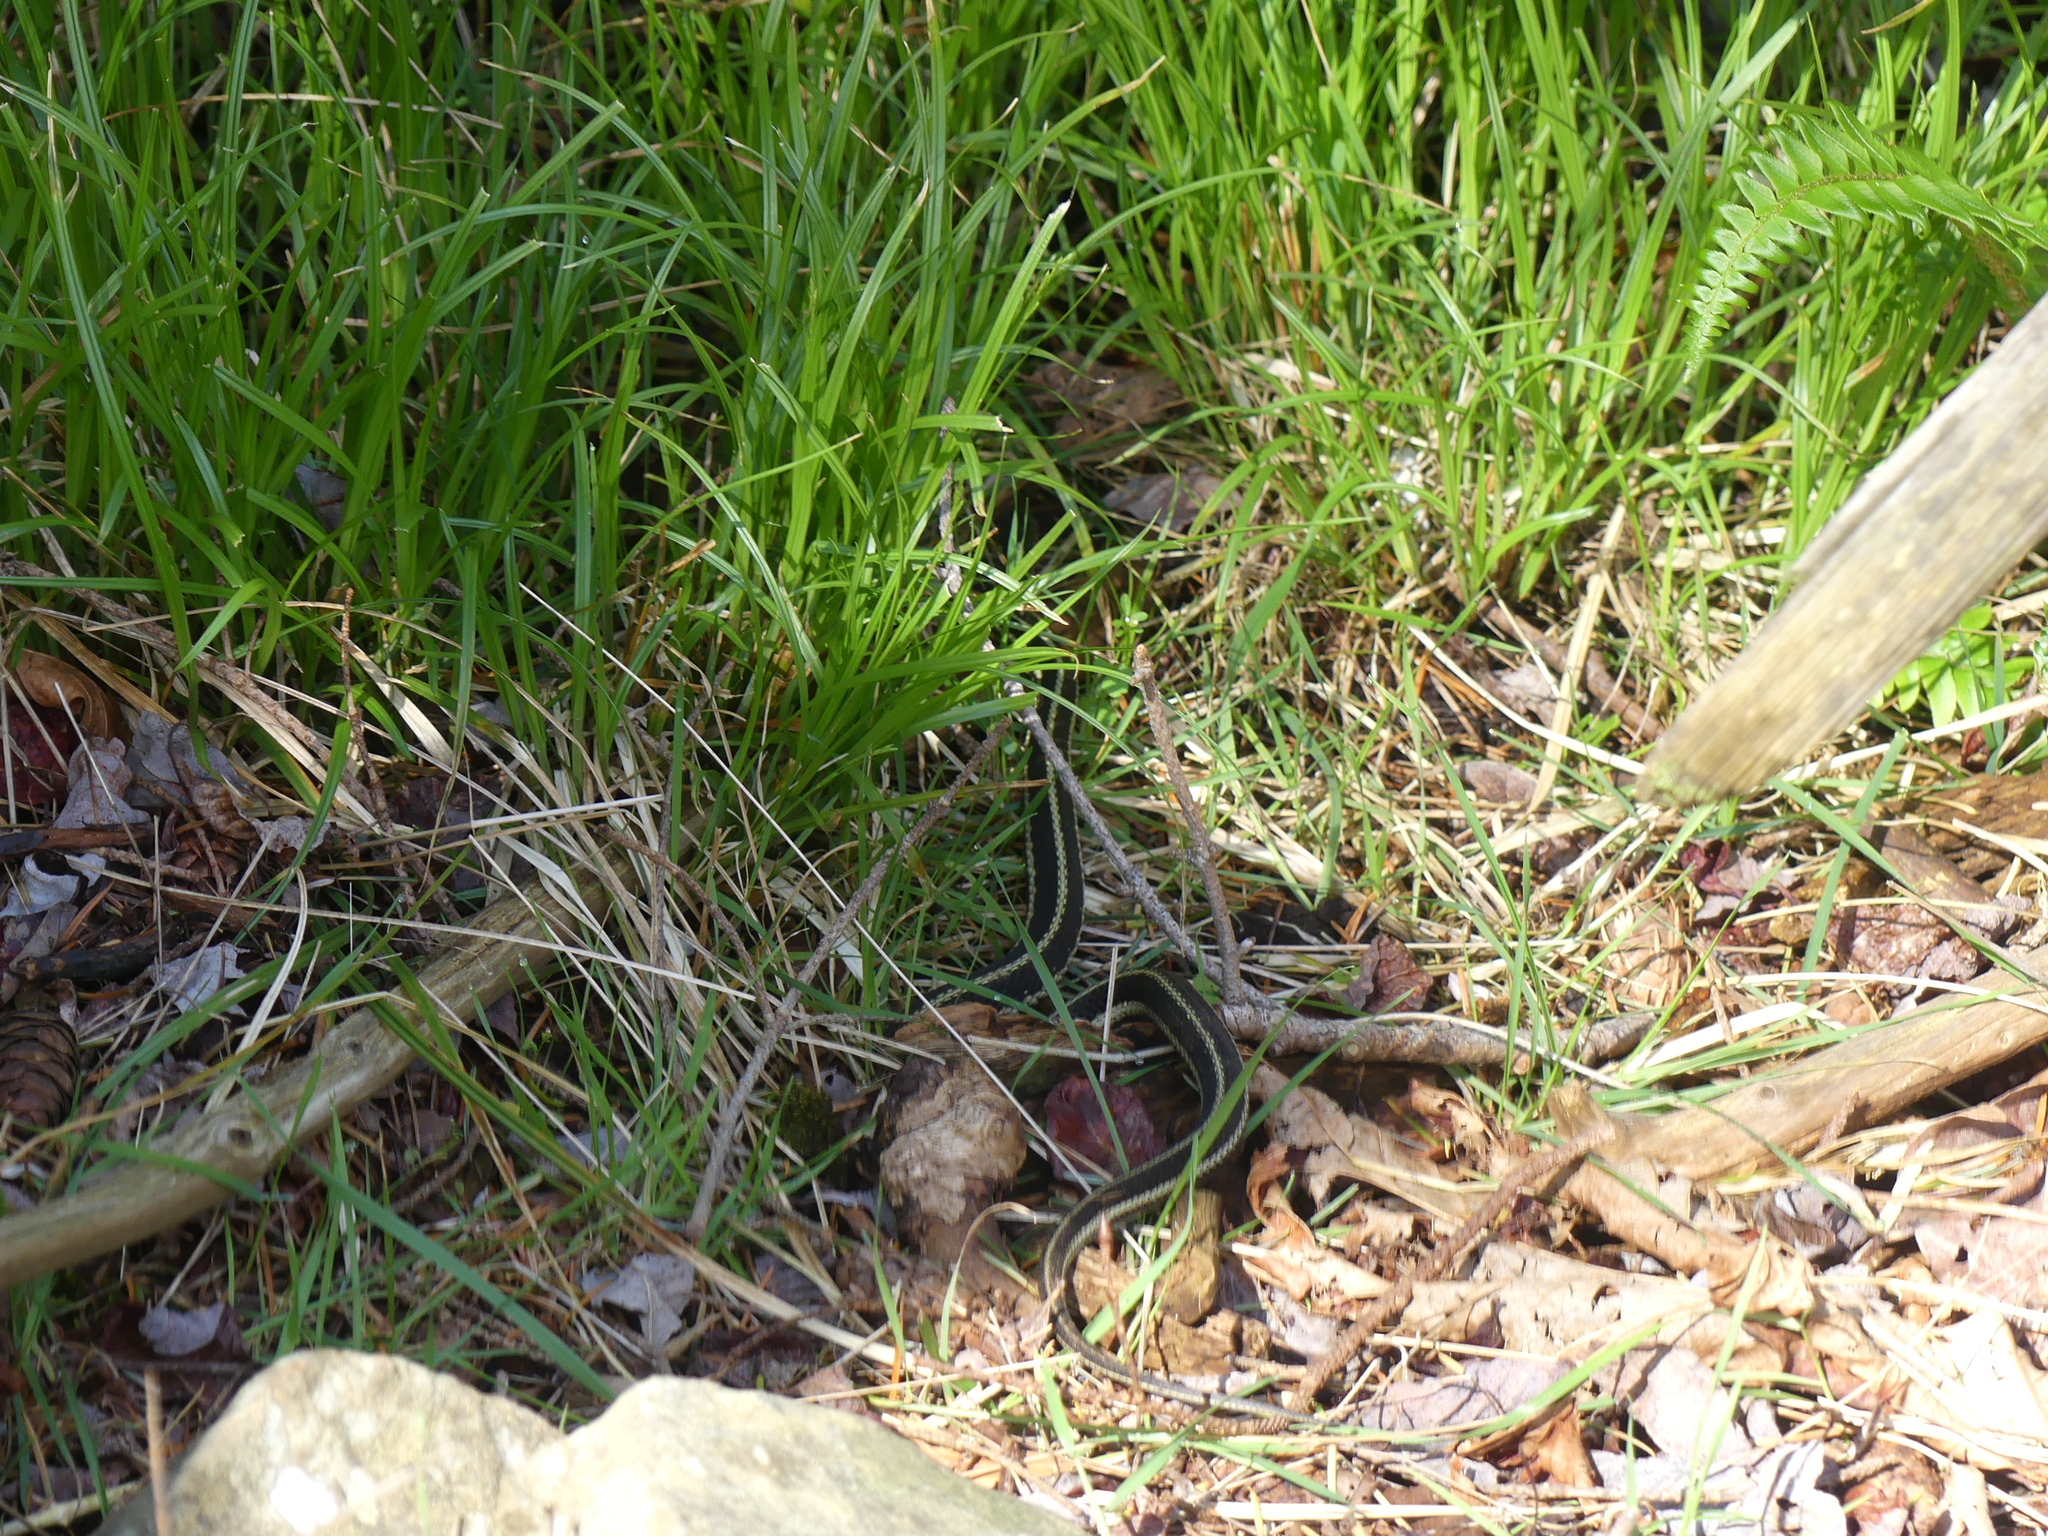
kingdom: Animalia
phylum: Chordata
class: Squamata
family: Colubridae
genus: Thamnophis
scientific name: Thamnophis elegans
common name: Western terrestrial garter snake
